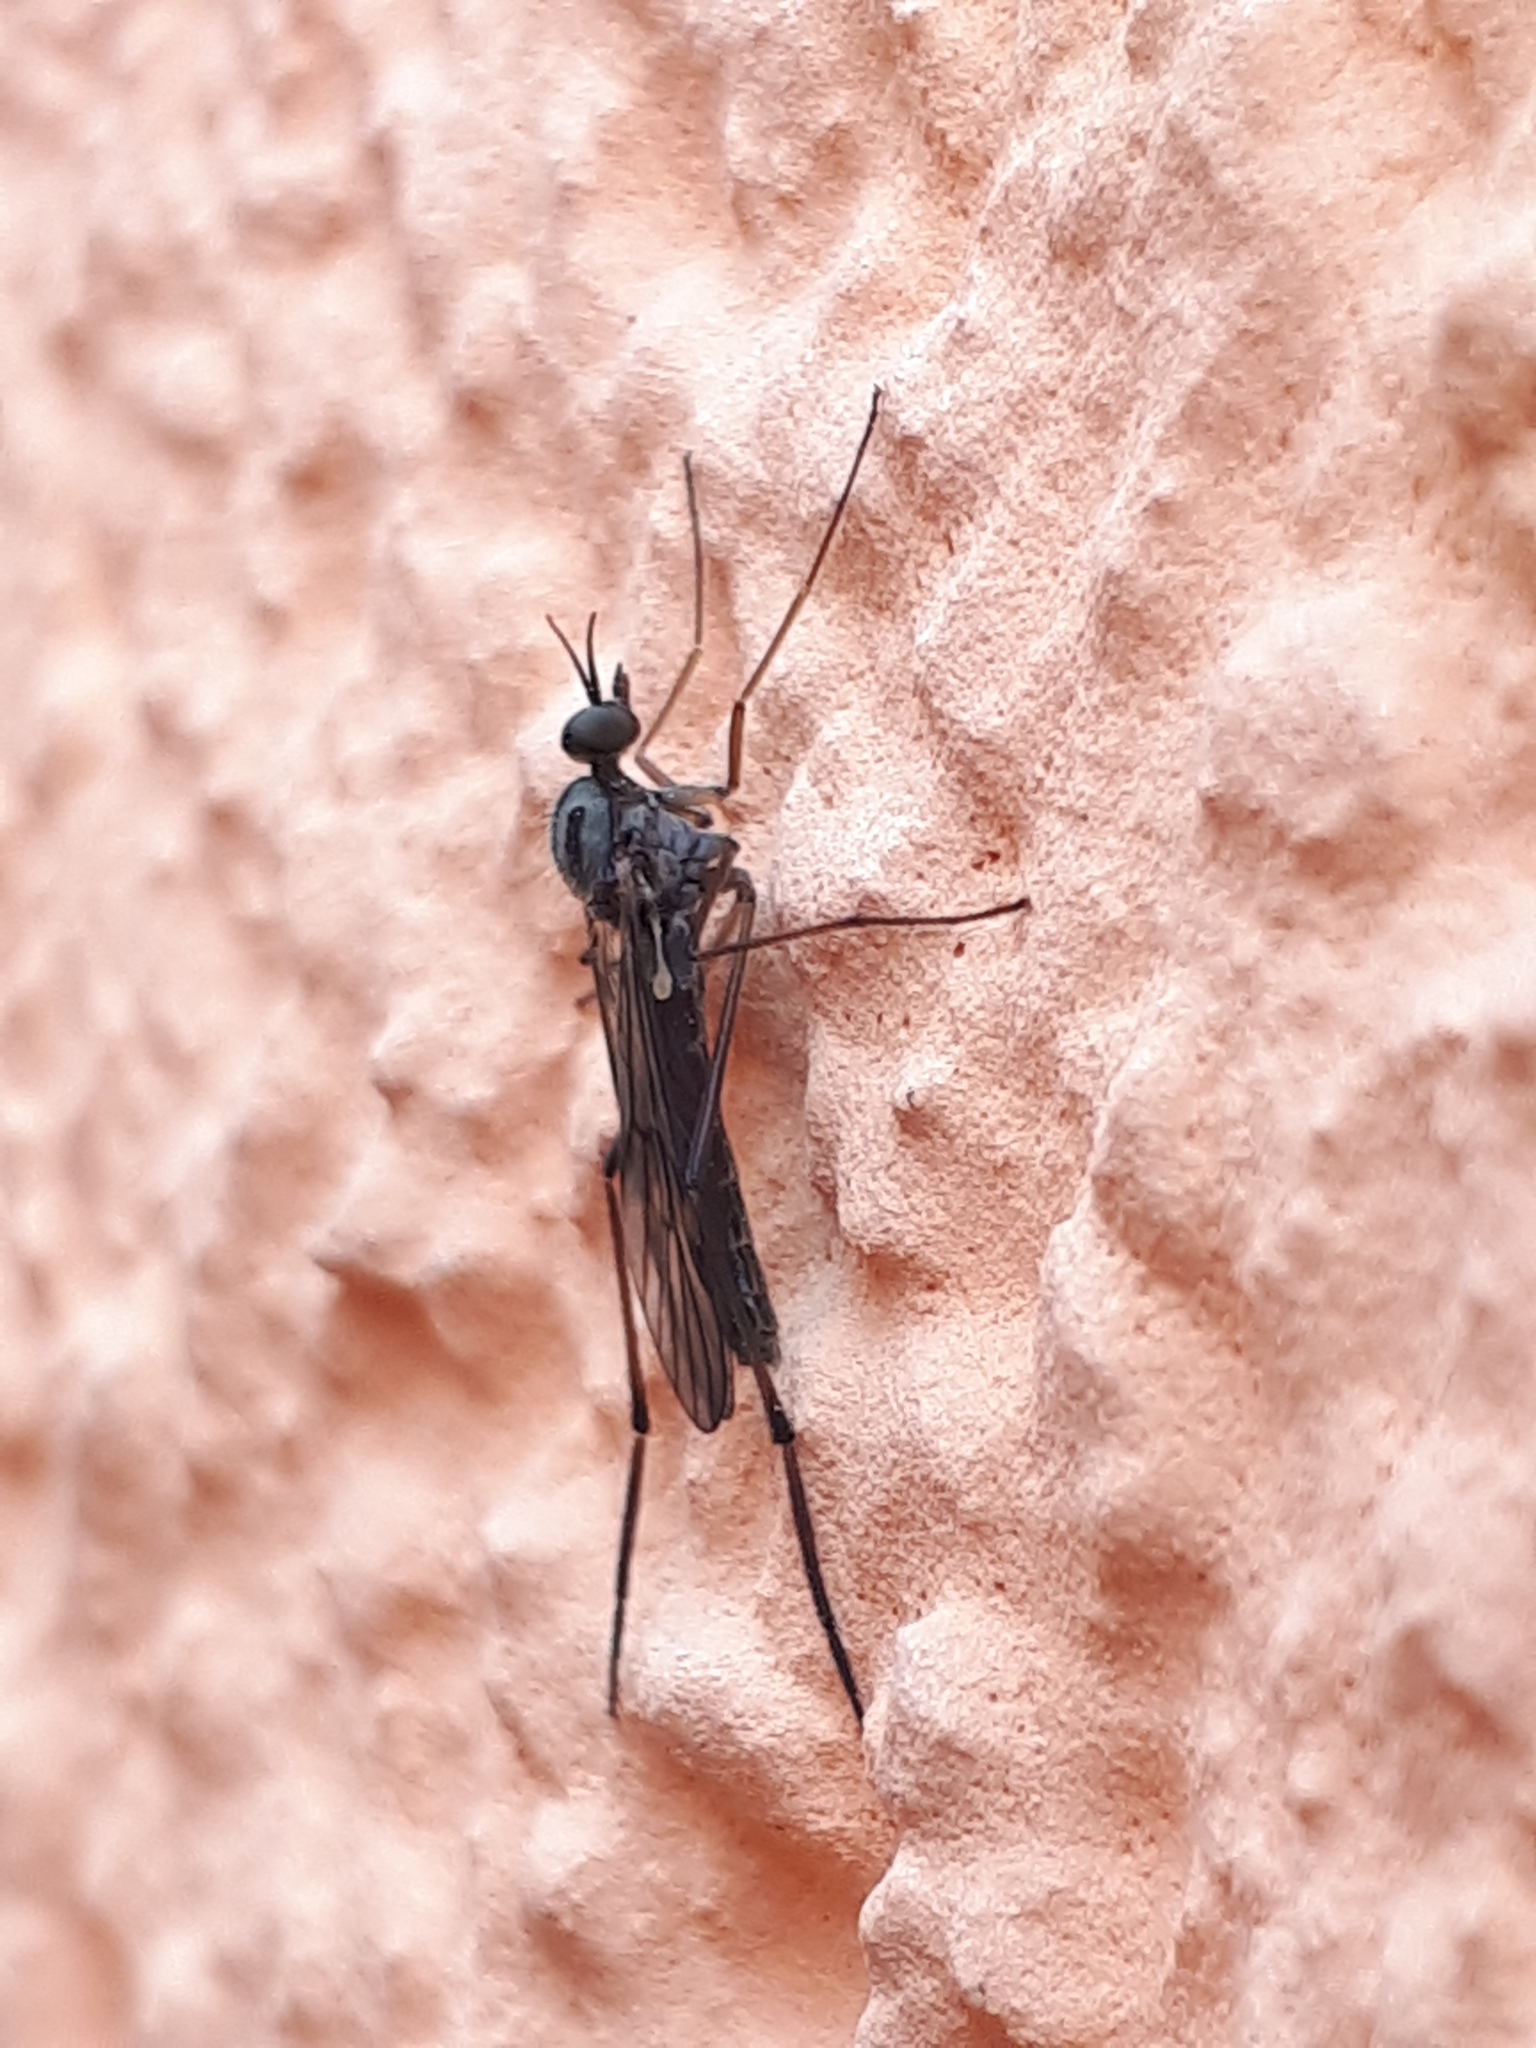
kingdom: Animalia
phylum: Arthropoda
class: Insecta
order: Diptera
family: Anisopodidae
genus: Sylvicola
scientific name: Sylvicola fuscatus
